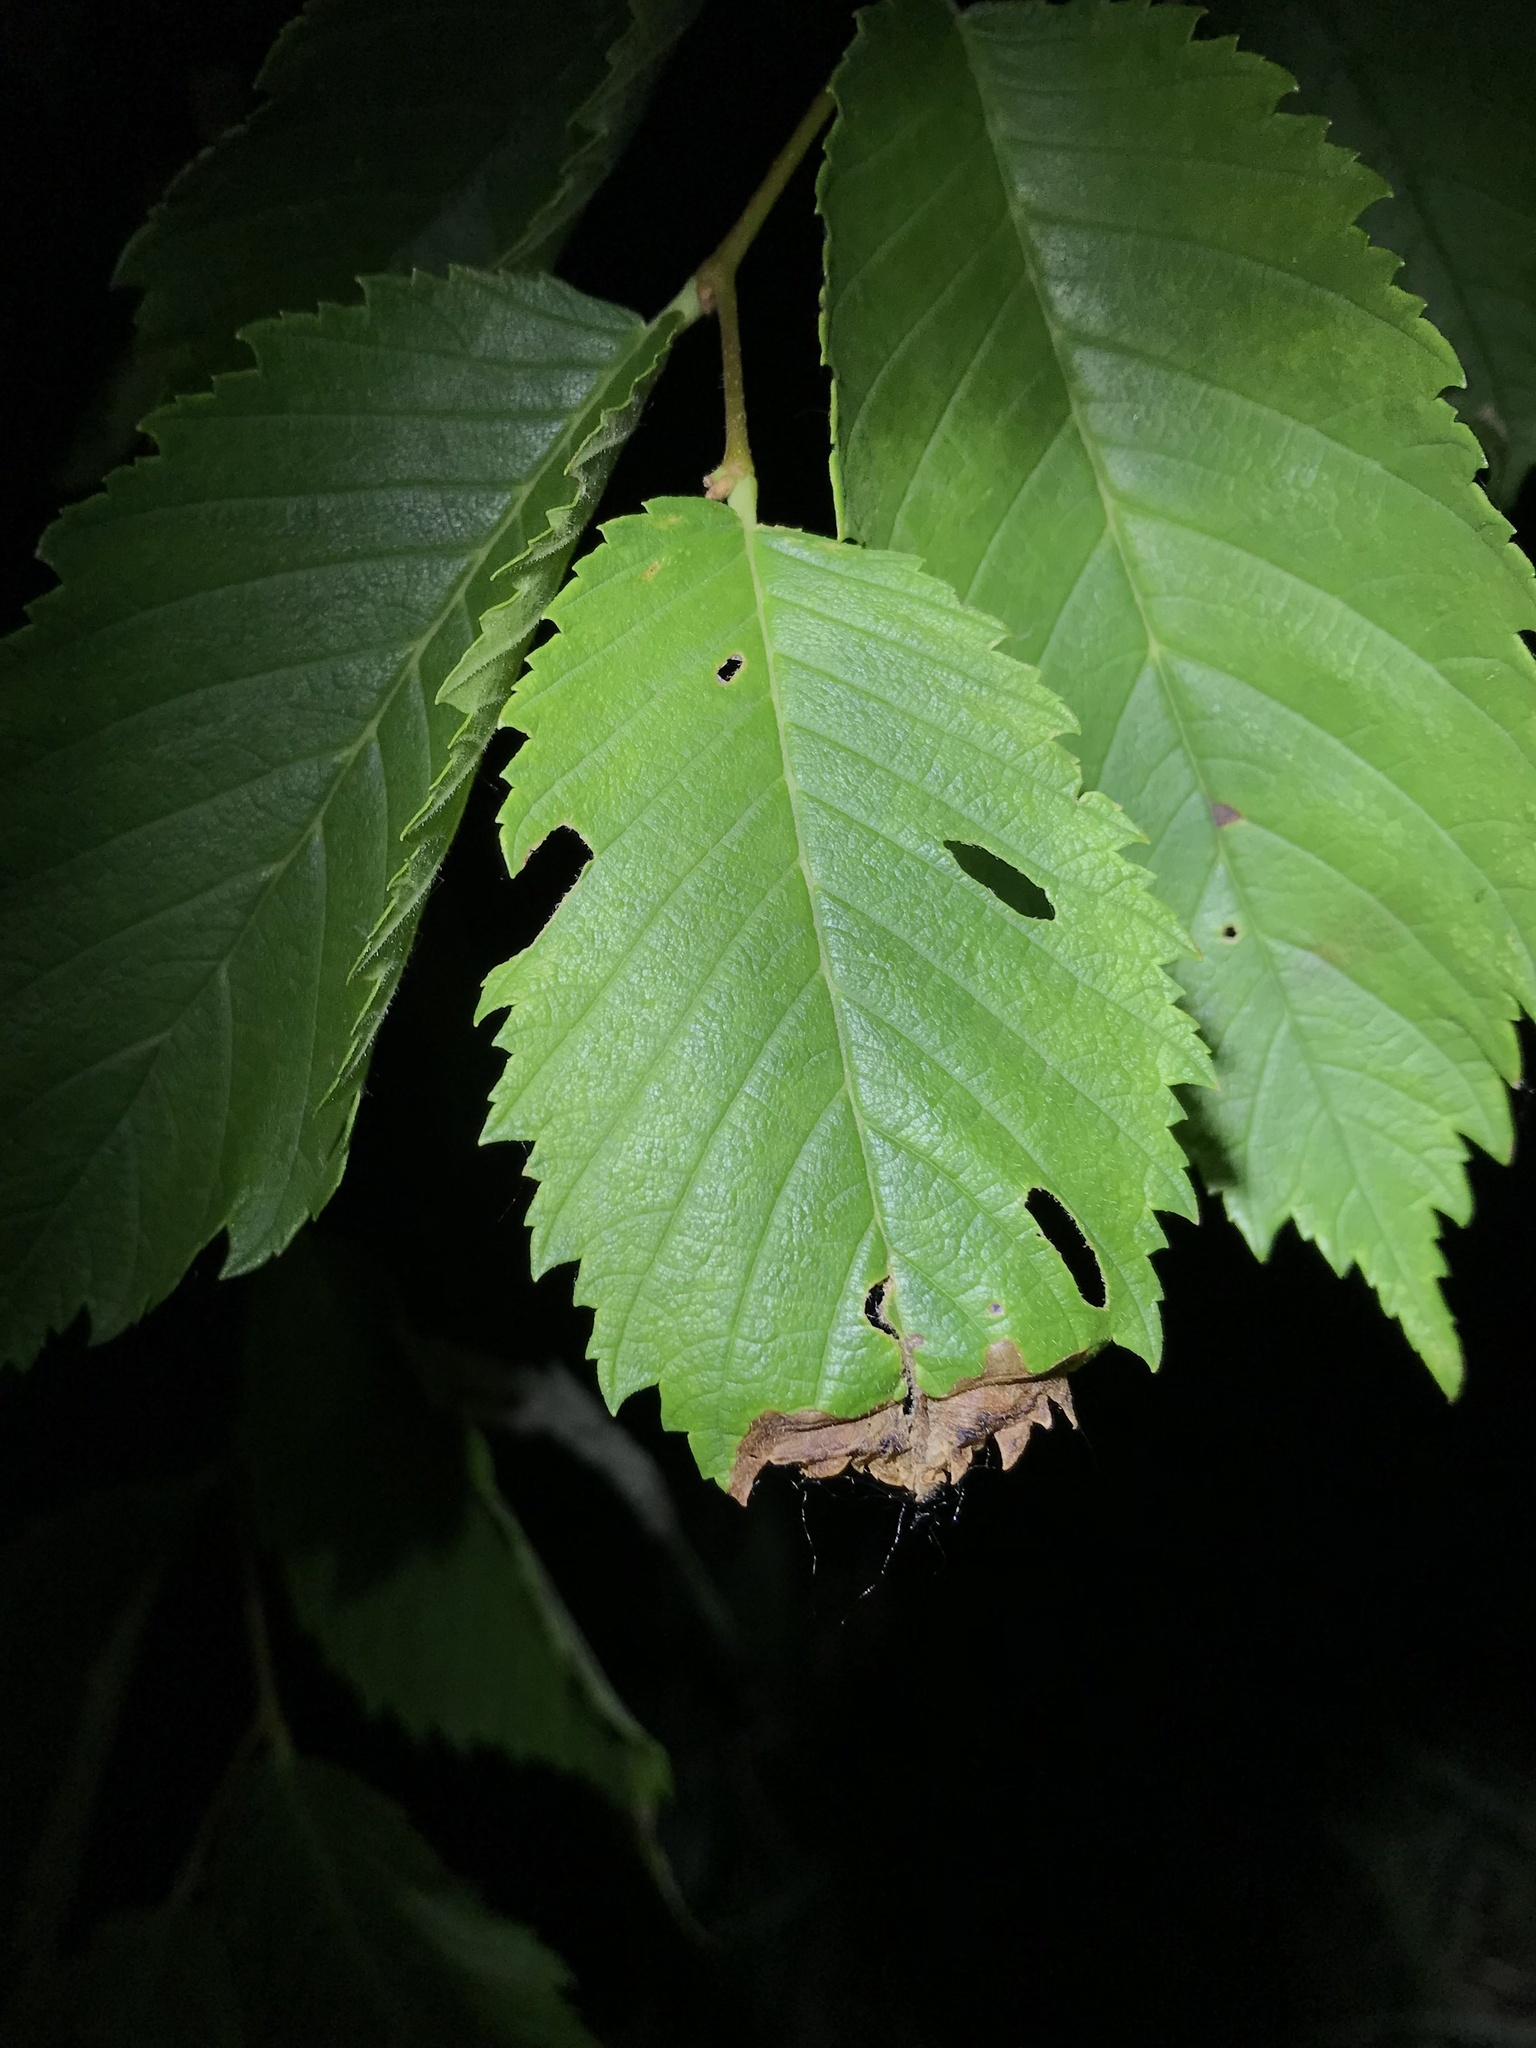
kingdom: Animalia
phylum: Arthropoda
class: Insecta
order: Coleoptera
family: Curculionidae
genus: Orchestes
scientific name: Orchestes steppensis
